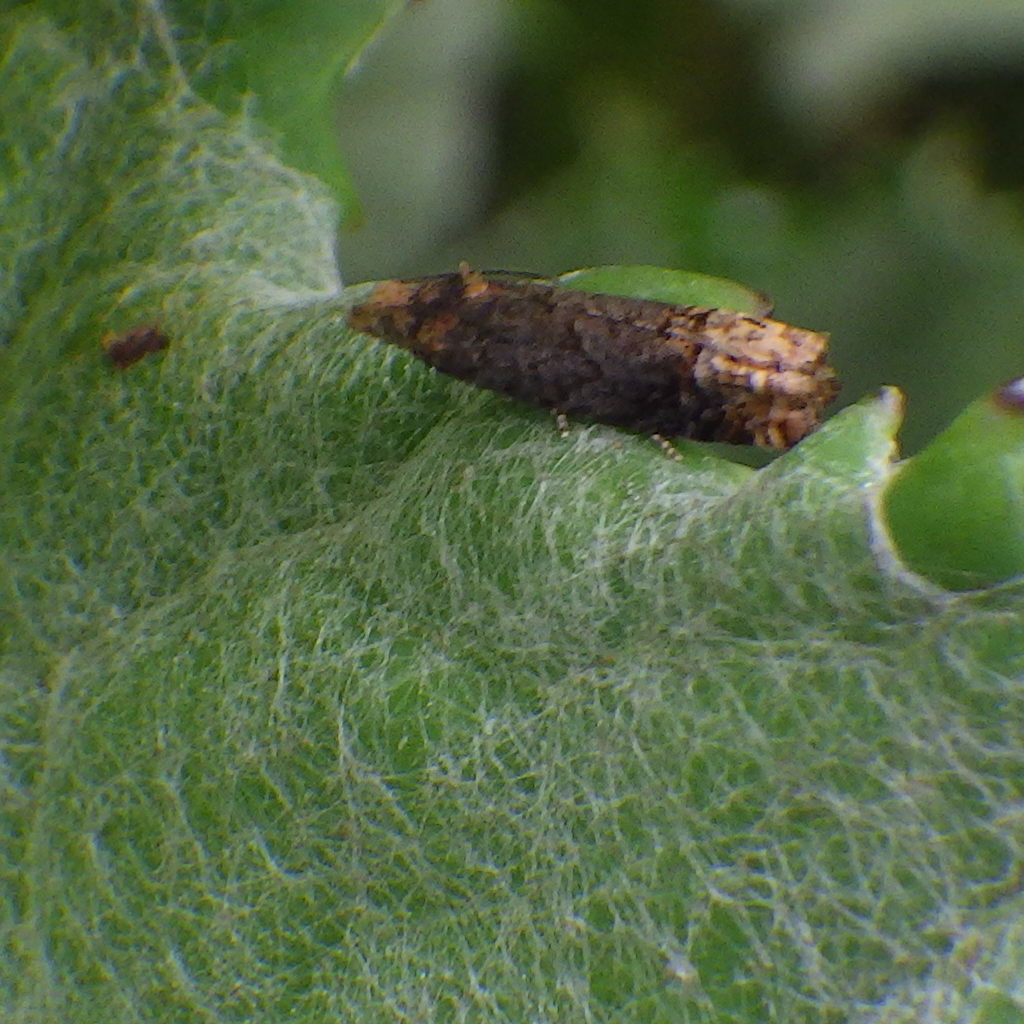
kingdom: Animalia
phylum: Arthropoda
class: Insecta
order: Lepidoptera
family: Tortricidae
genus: Eucosma
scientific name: Eucosma ochroterminana
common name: Buff-tipped eucosma moth
